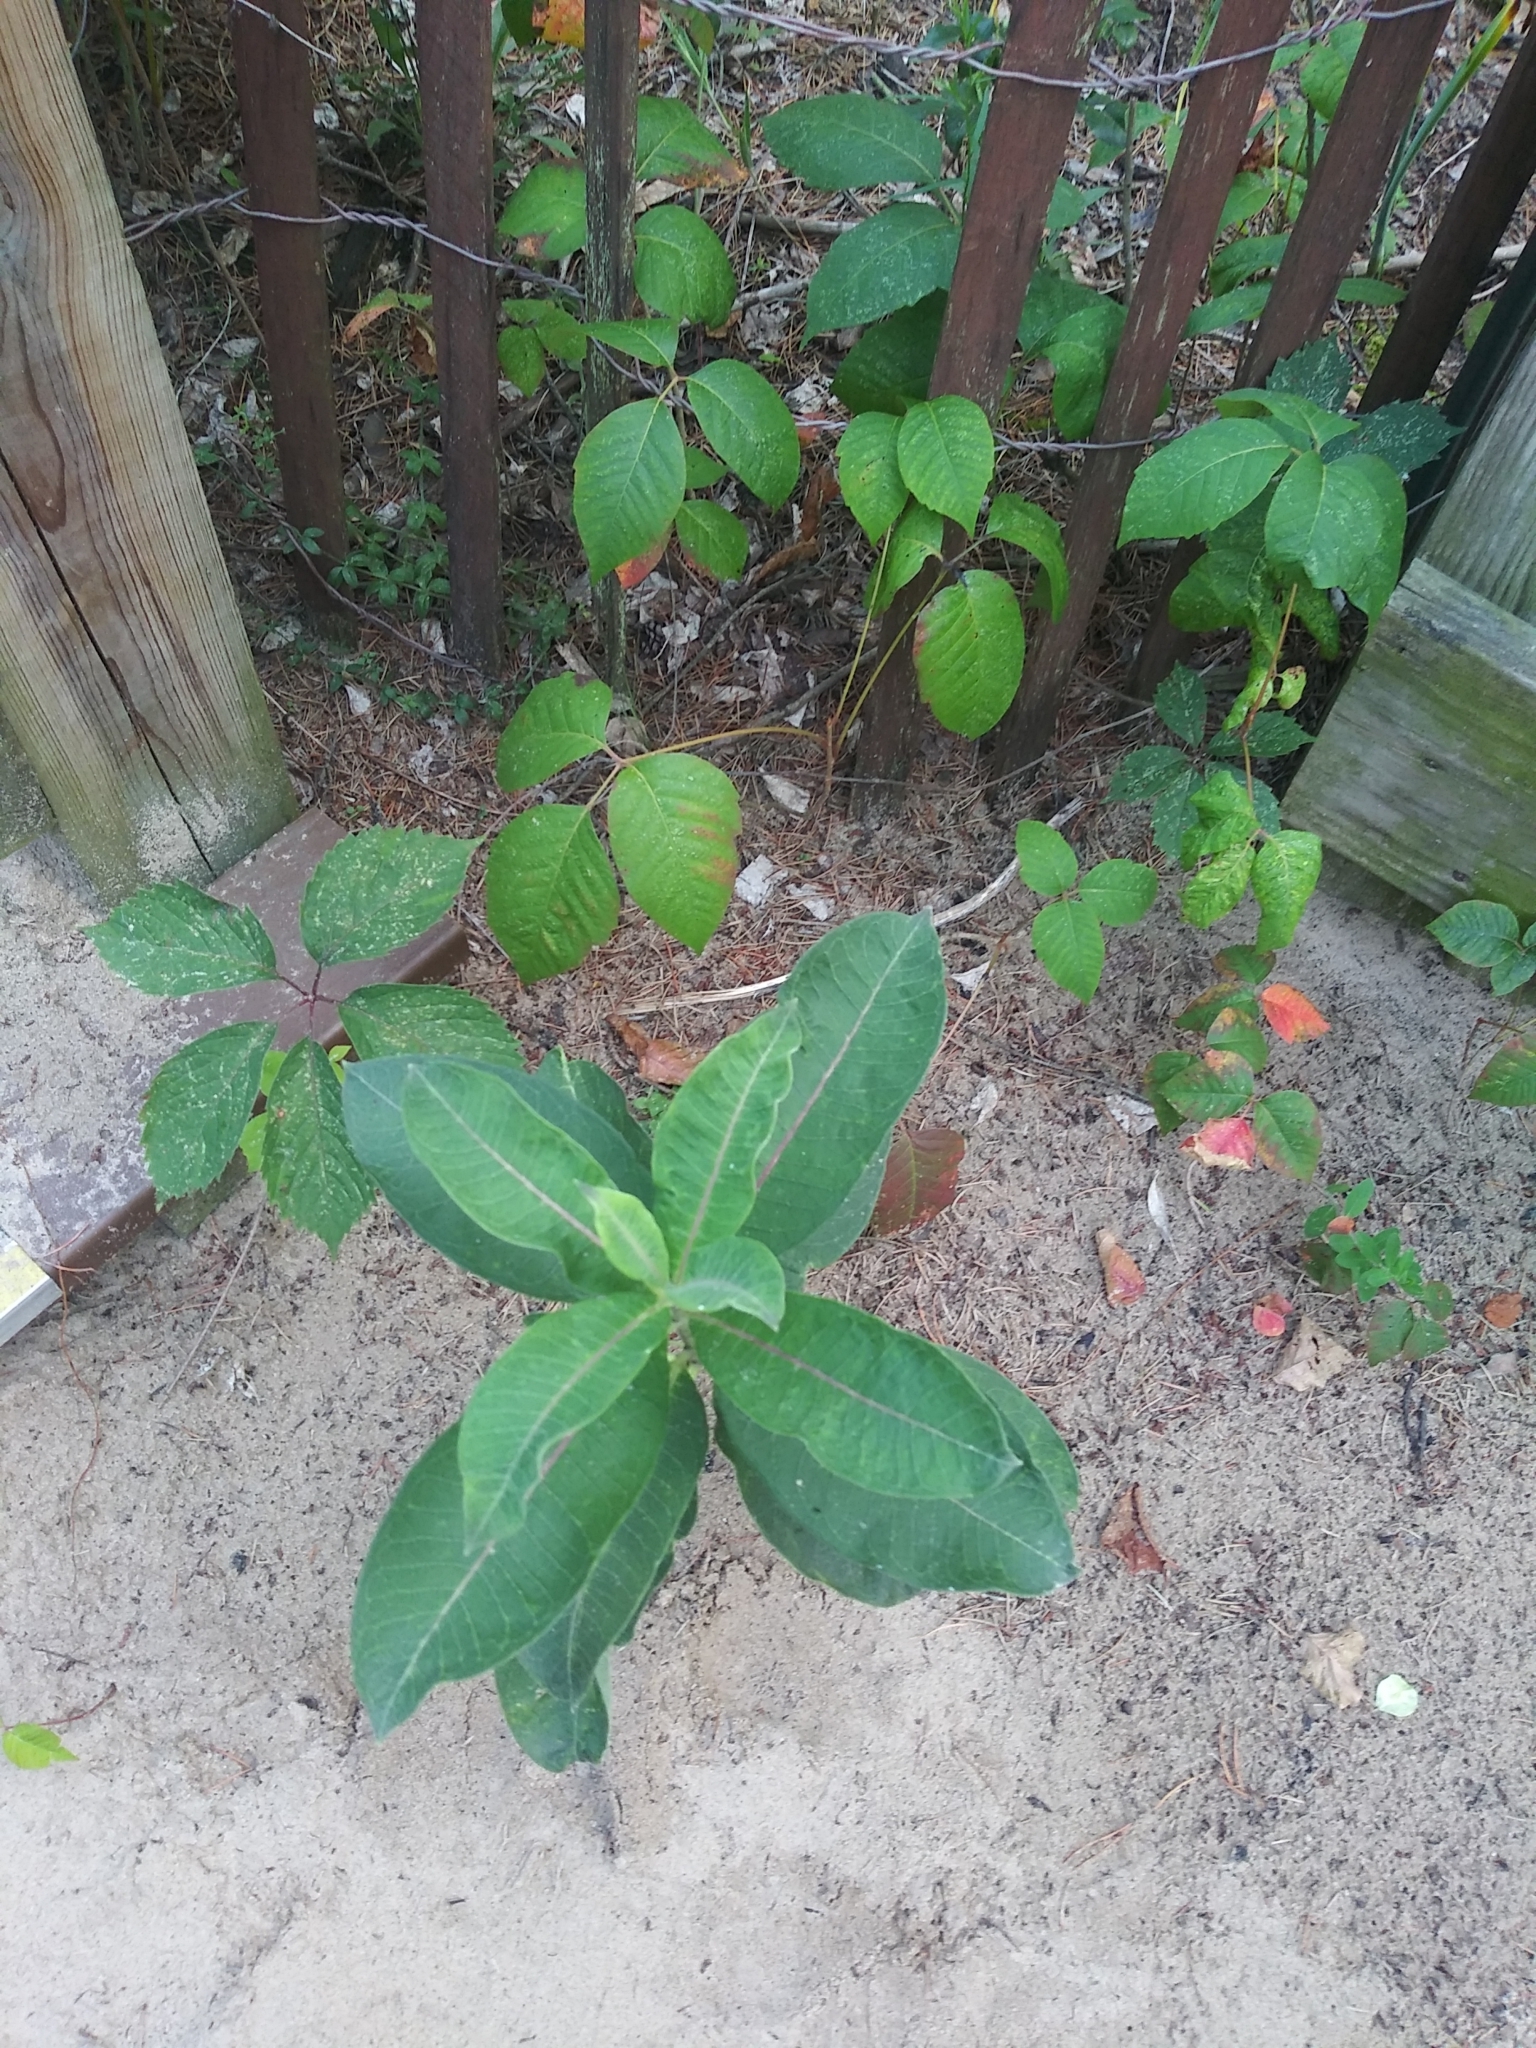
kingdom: Plantae
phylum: Tracheophyta
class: Magnoliopsida
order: Gentianales
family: Apocynaceae
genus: Asclepias
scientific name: Asclepias syriaca
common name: Common milkweed
